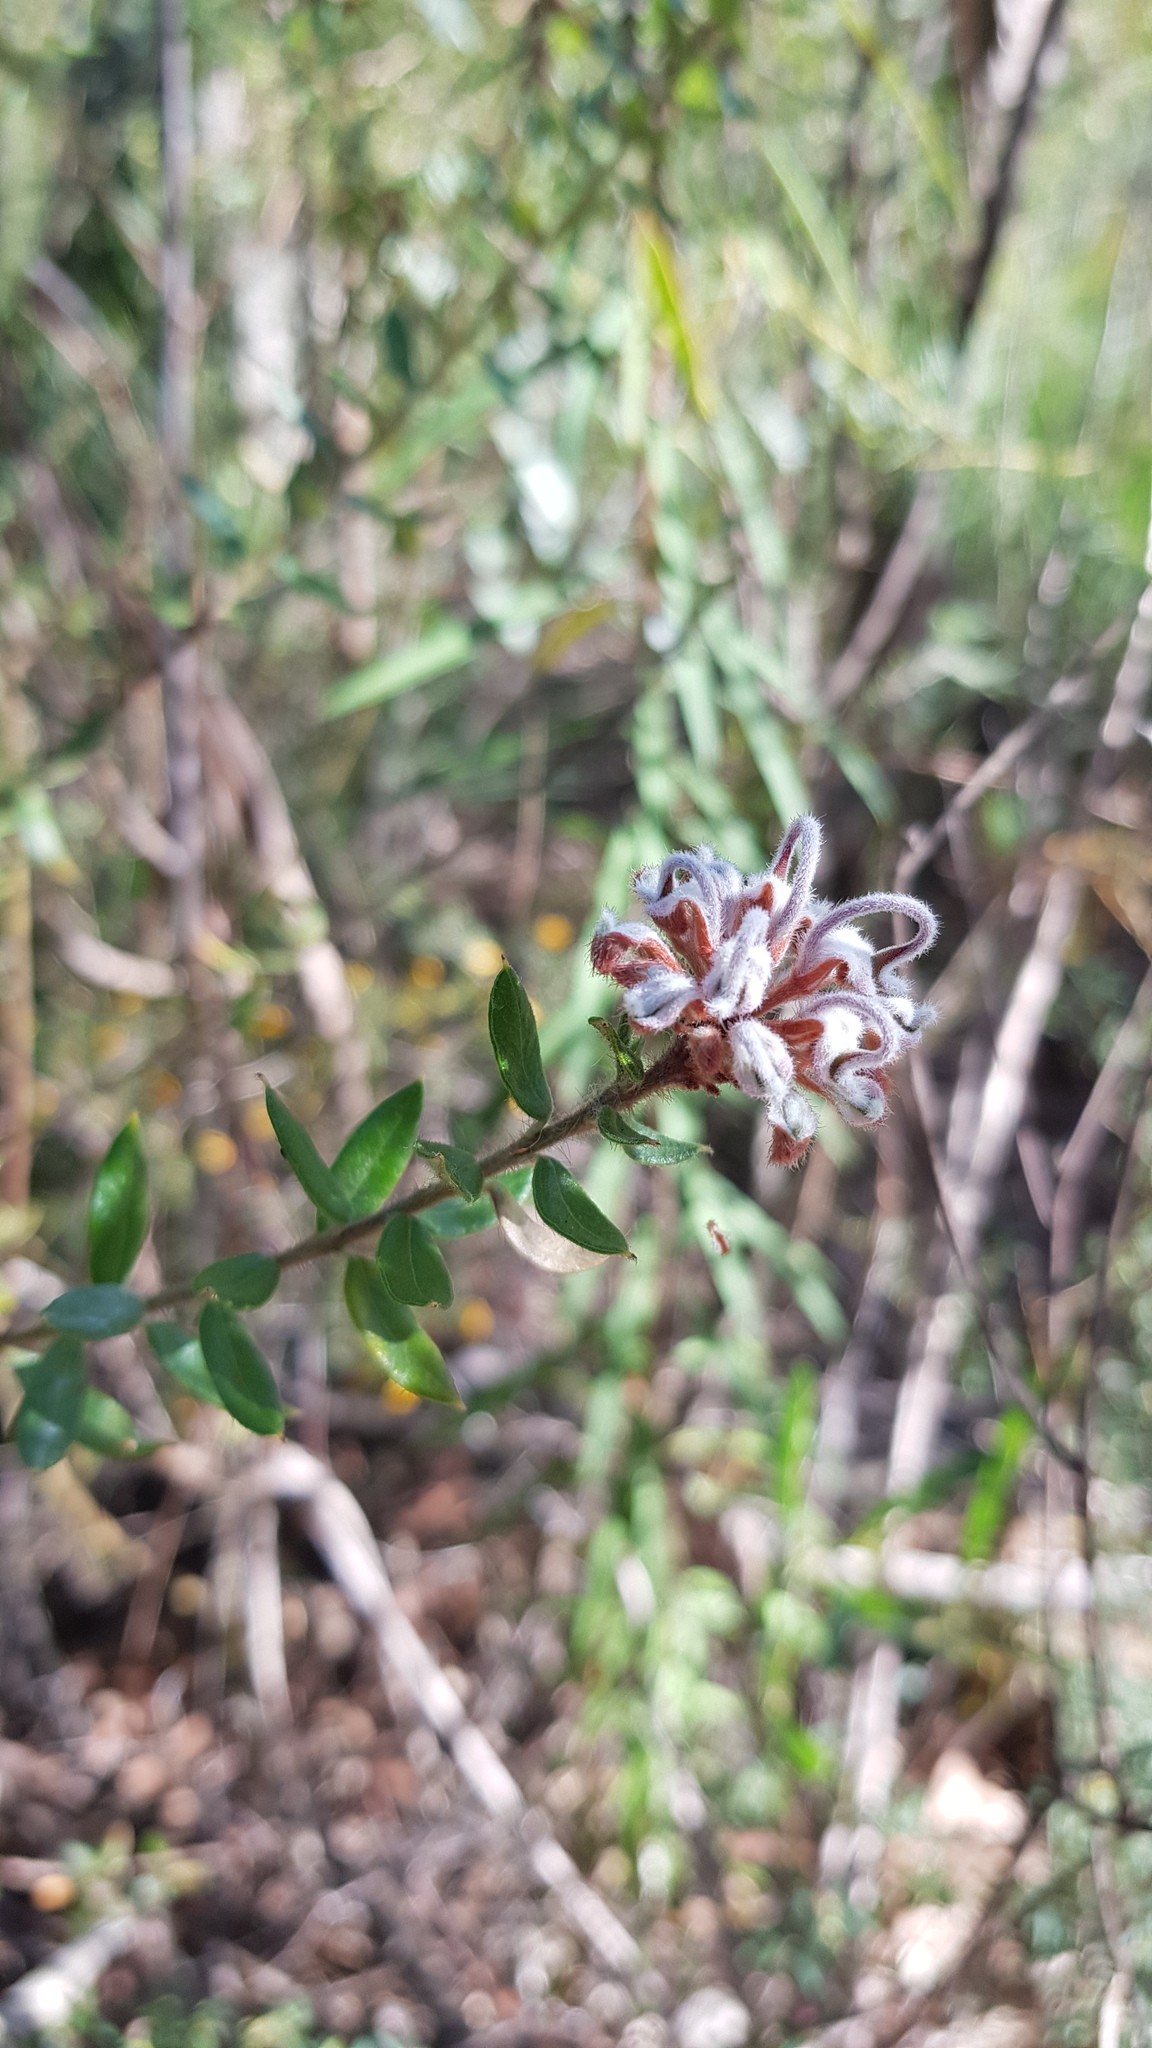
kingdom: Plantae
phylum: Tracheophyta
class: Magnoliopsida
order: Proteales
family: Proteaceae
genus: Grevillea
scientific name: Grevillea buxifolia
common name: Grey spiderflower
